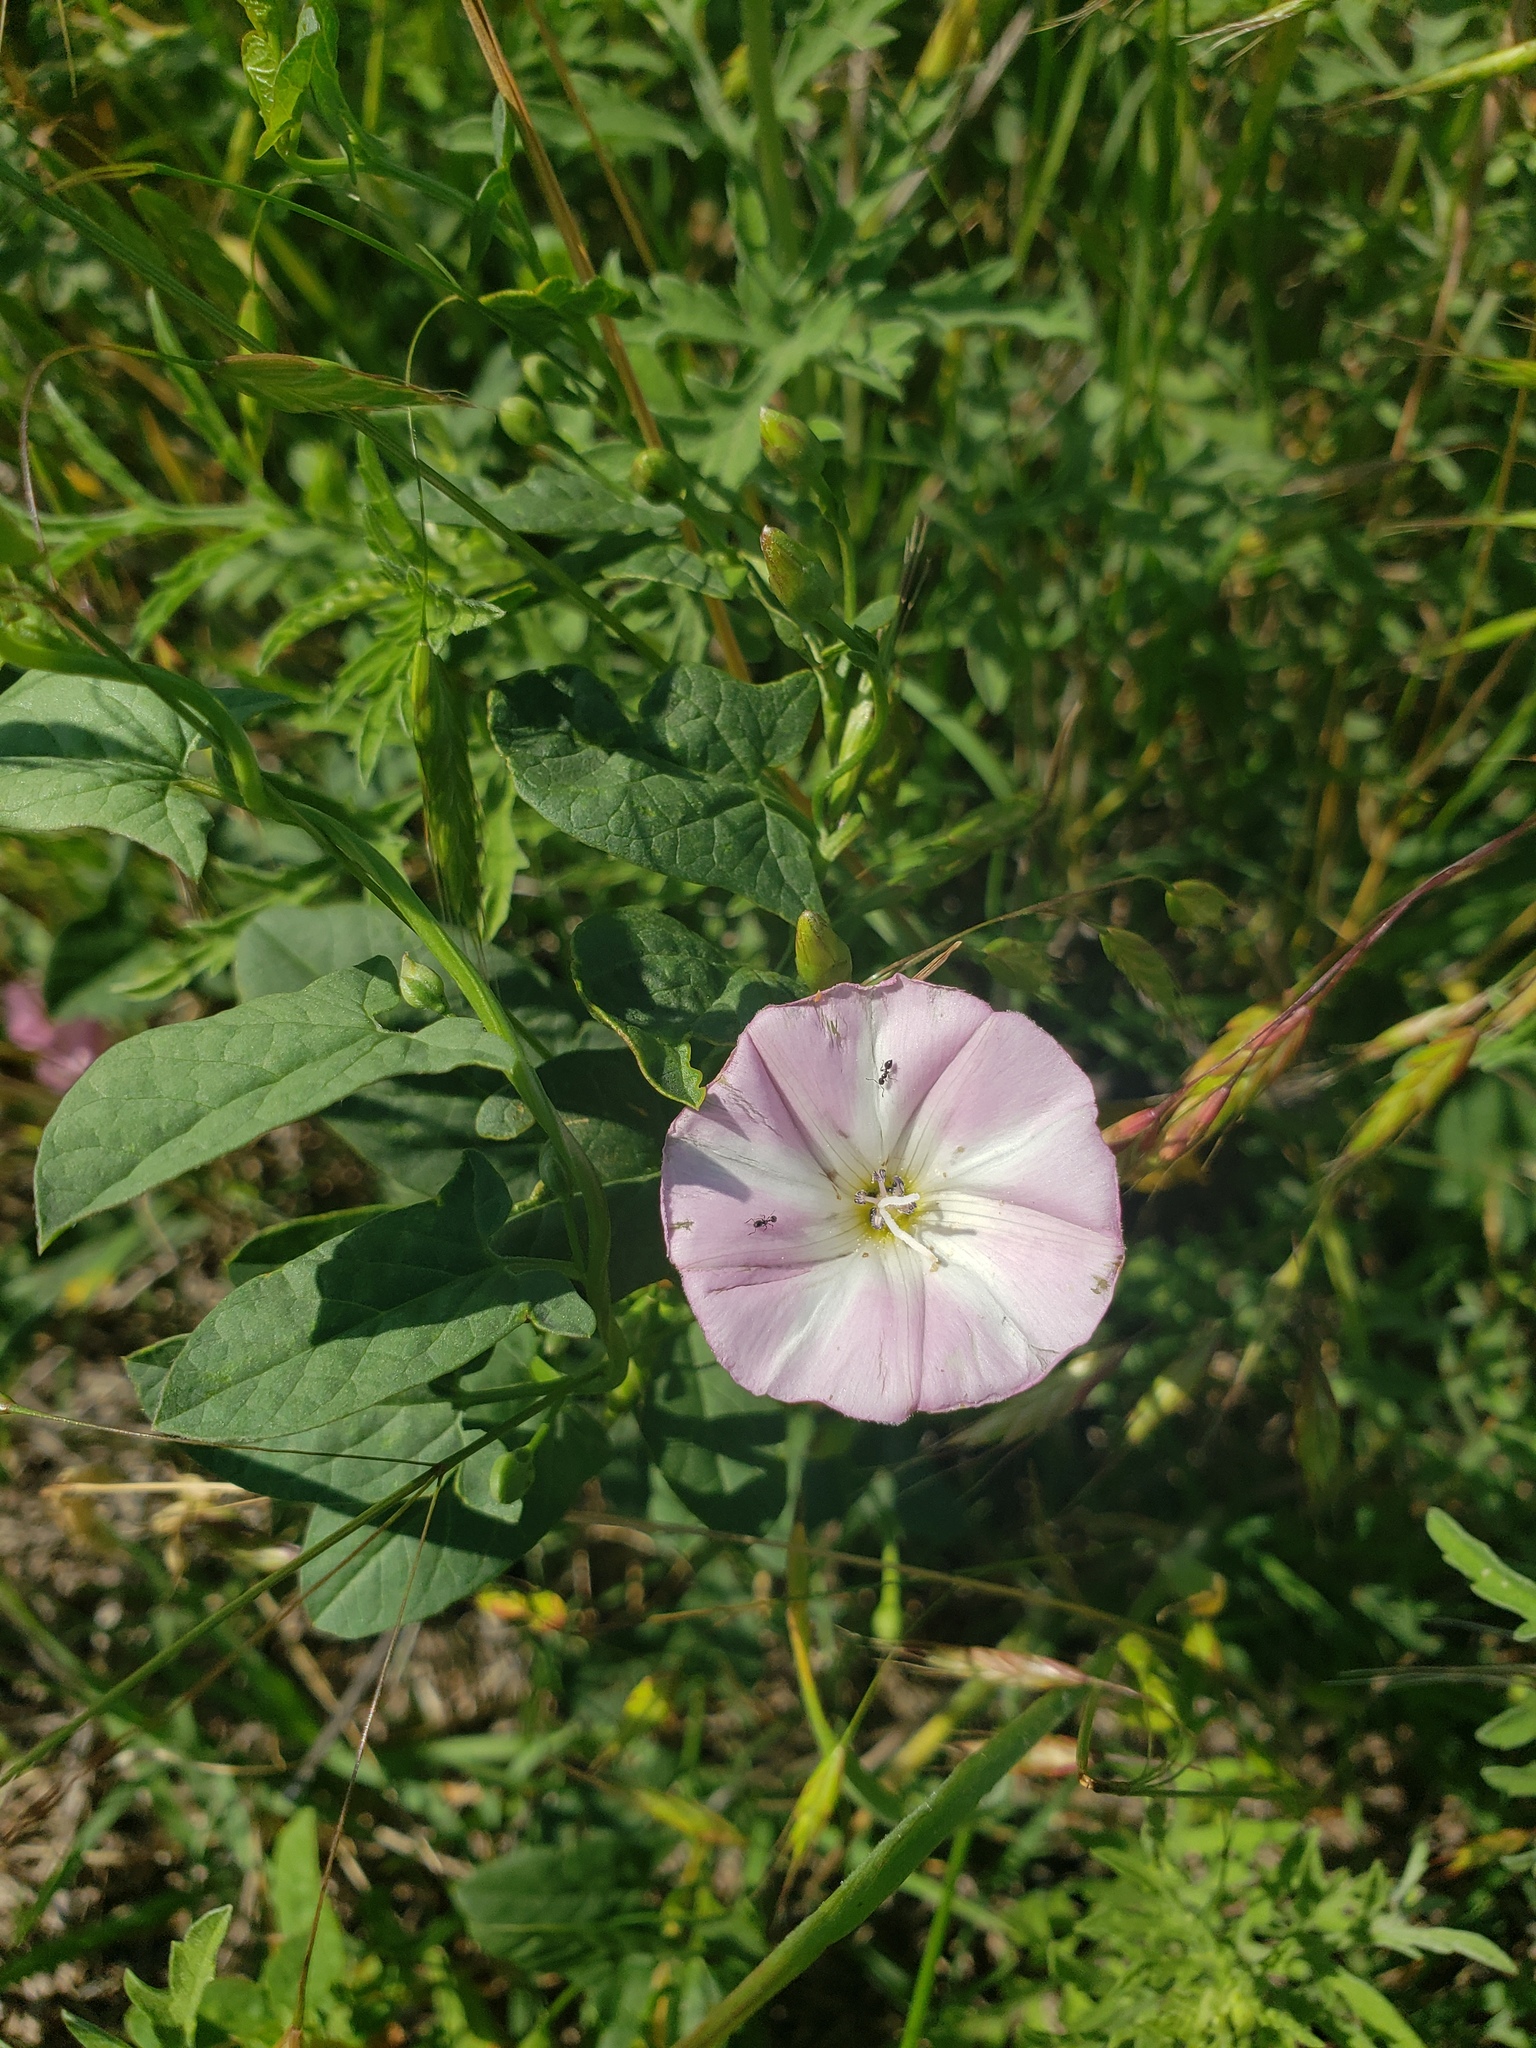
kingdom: Plantae
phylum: Tracheophyta
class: Magnoliopsida
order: Solanales
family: Convolvulaceae
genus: Convolvulus
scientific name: Convolvulus arvensis
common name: Field bindweed
